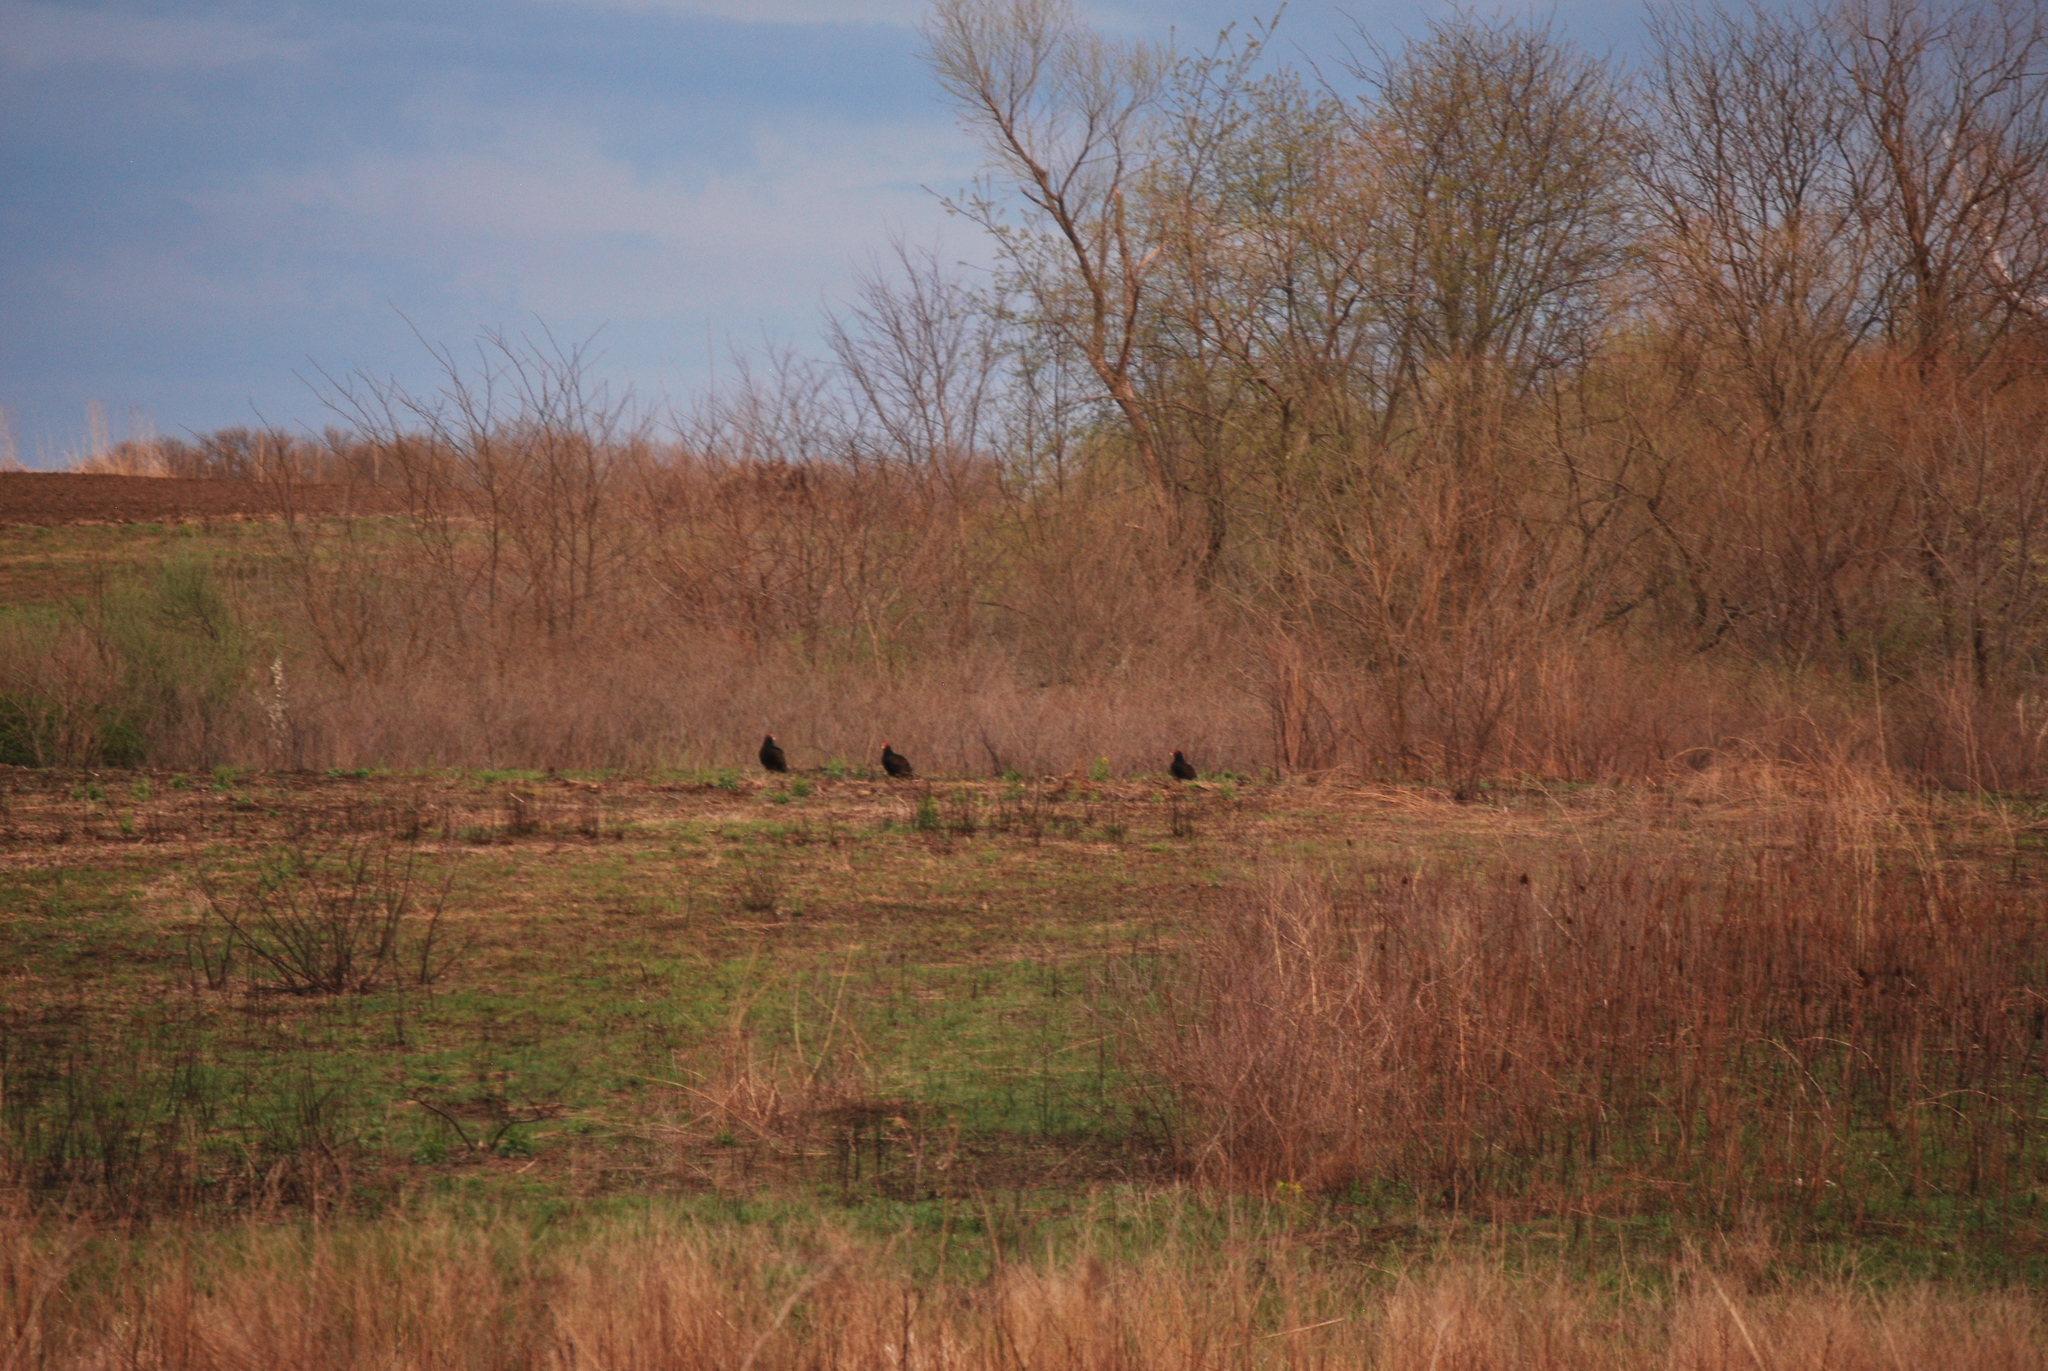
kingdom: Animalia
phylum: Chordata
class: Aves
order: Accipitriformes
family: Cathartidae
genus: Cathartes
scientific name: Cathartes aura
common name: Turkey vulture
